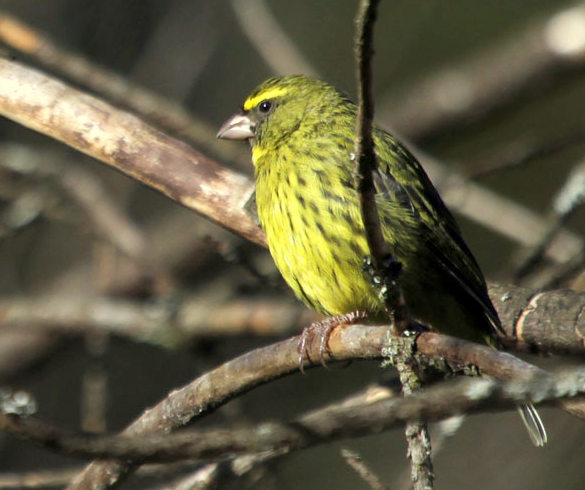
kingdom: Animalia
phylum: Chordata
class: Aves
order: Passeriformes
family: Fringillidae
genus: Crithagra
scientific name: Crithagra scotops
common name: Forest canary
